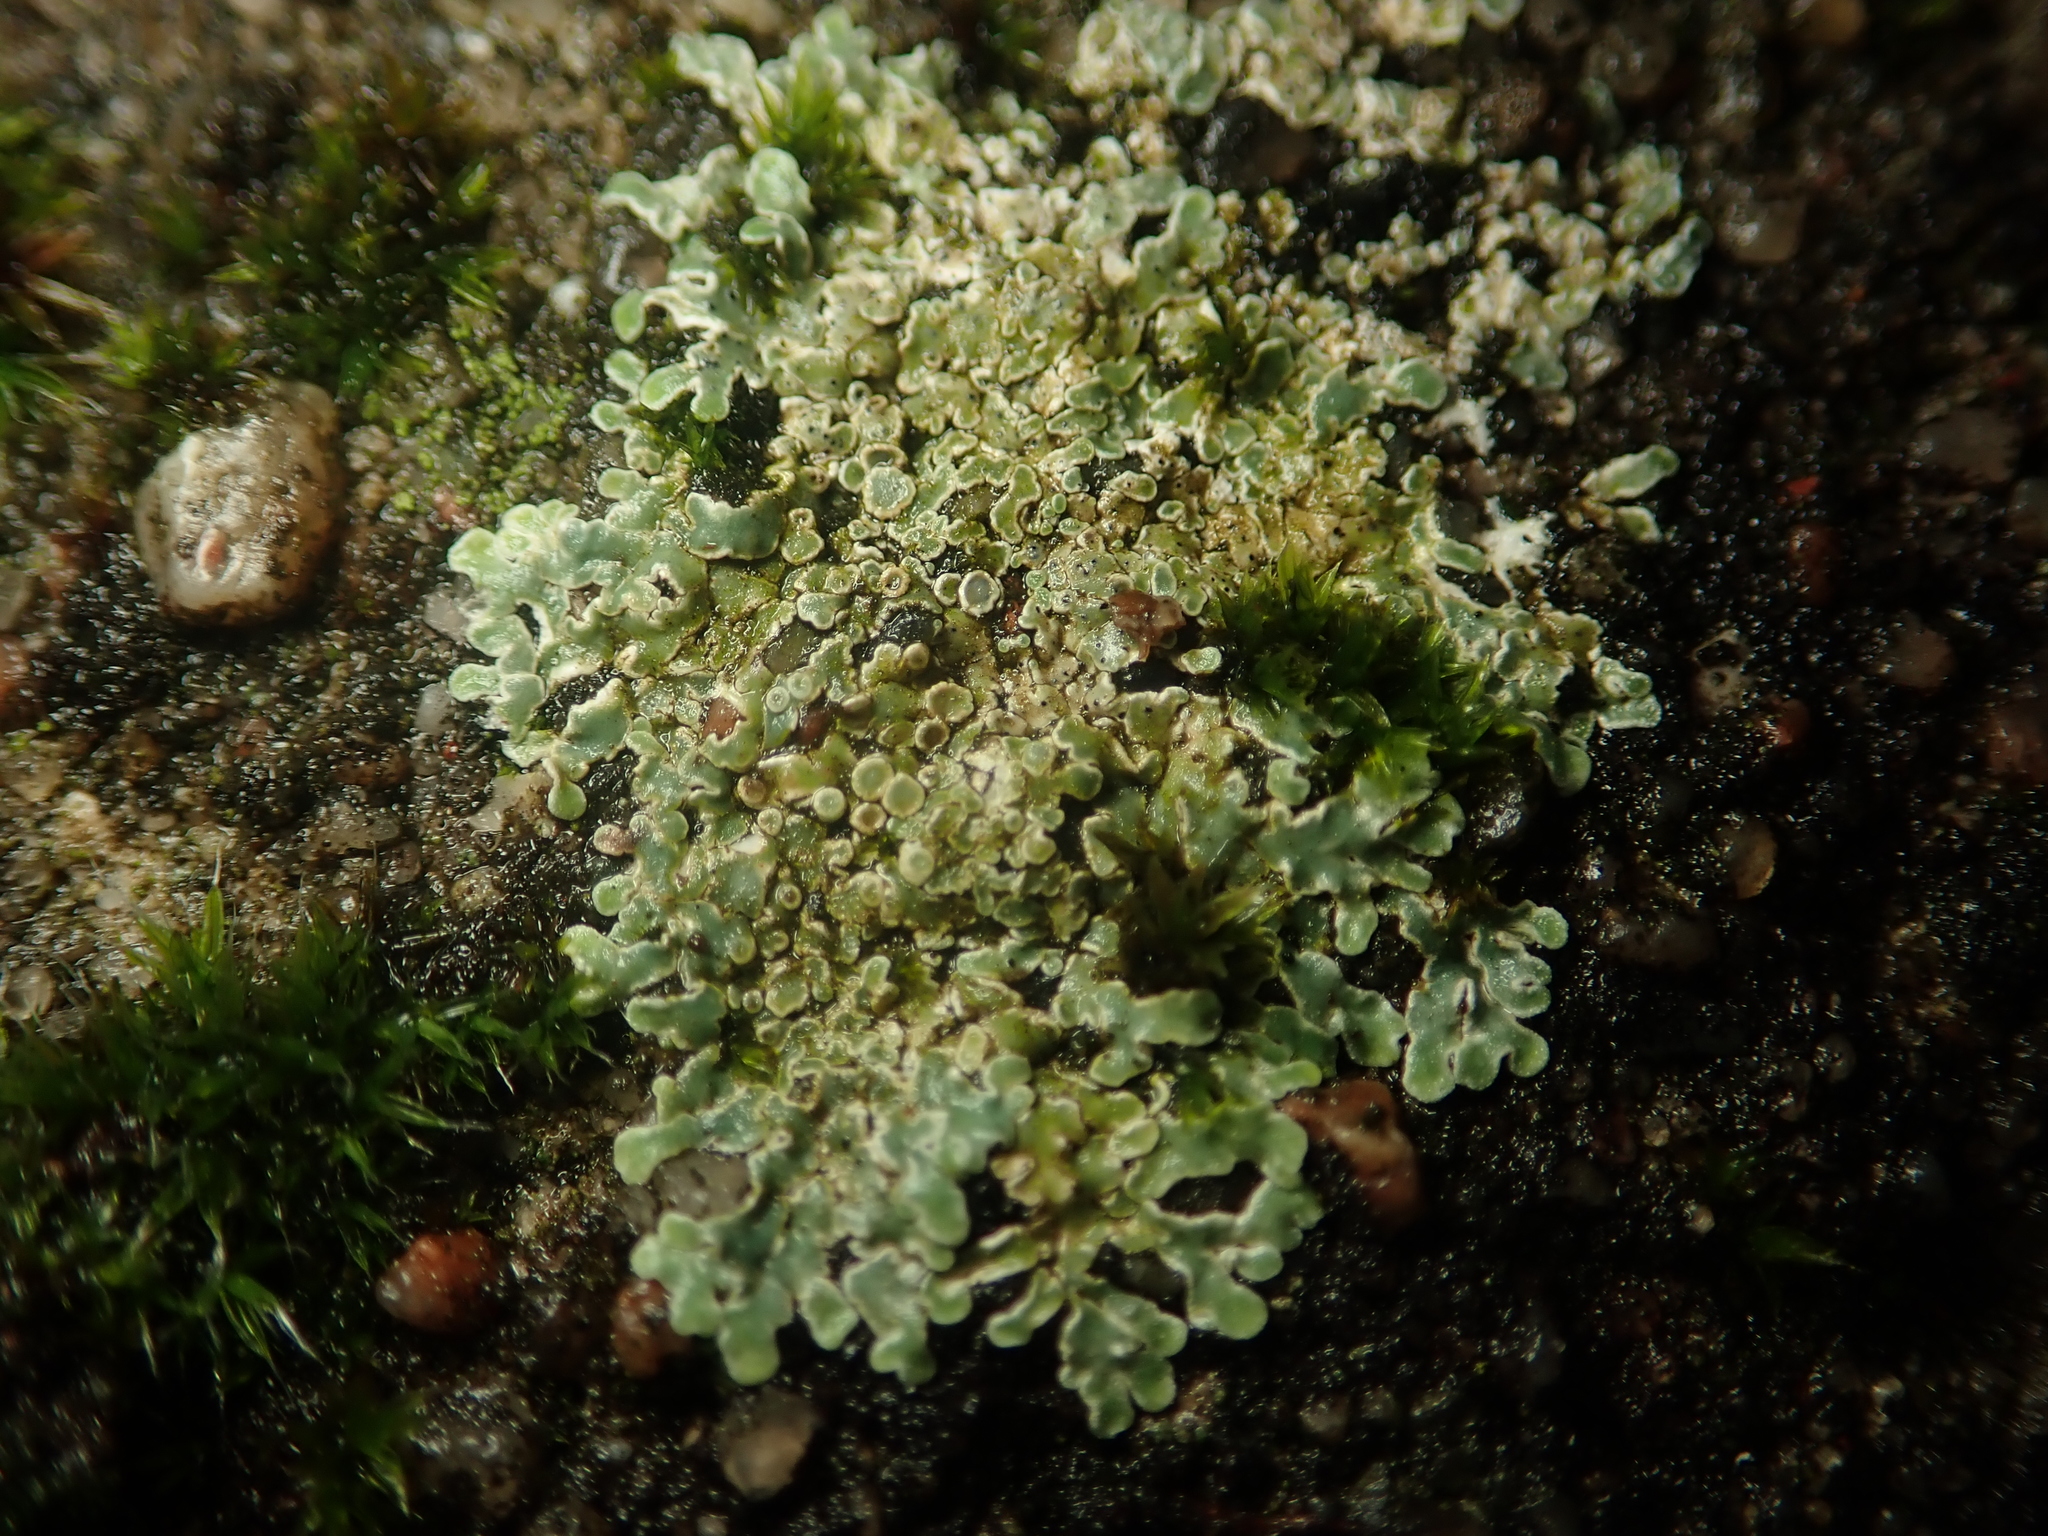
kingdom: Fungi
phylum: Ascomycota
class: Lecanoromycetes
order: Lecanorales
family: Lecanoraceae
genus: Protoparmeliopsis
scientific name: Protoparmeliopsis muralis
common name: Stonewall rim lichen
